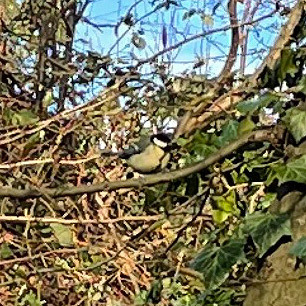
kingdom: Animalia
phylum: Chordata
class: Aves
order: Passeriformes
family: Paridae
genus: Parus
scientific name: Parus major
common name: Great tit
